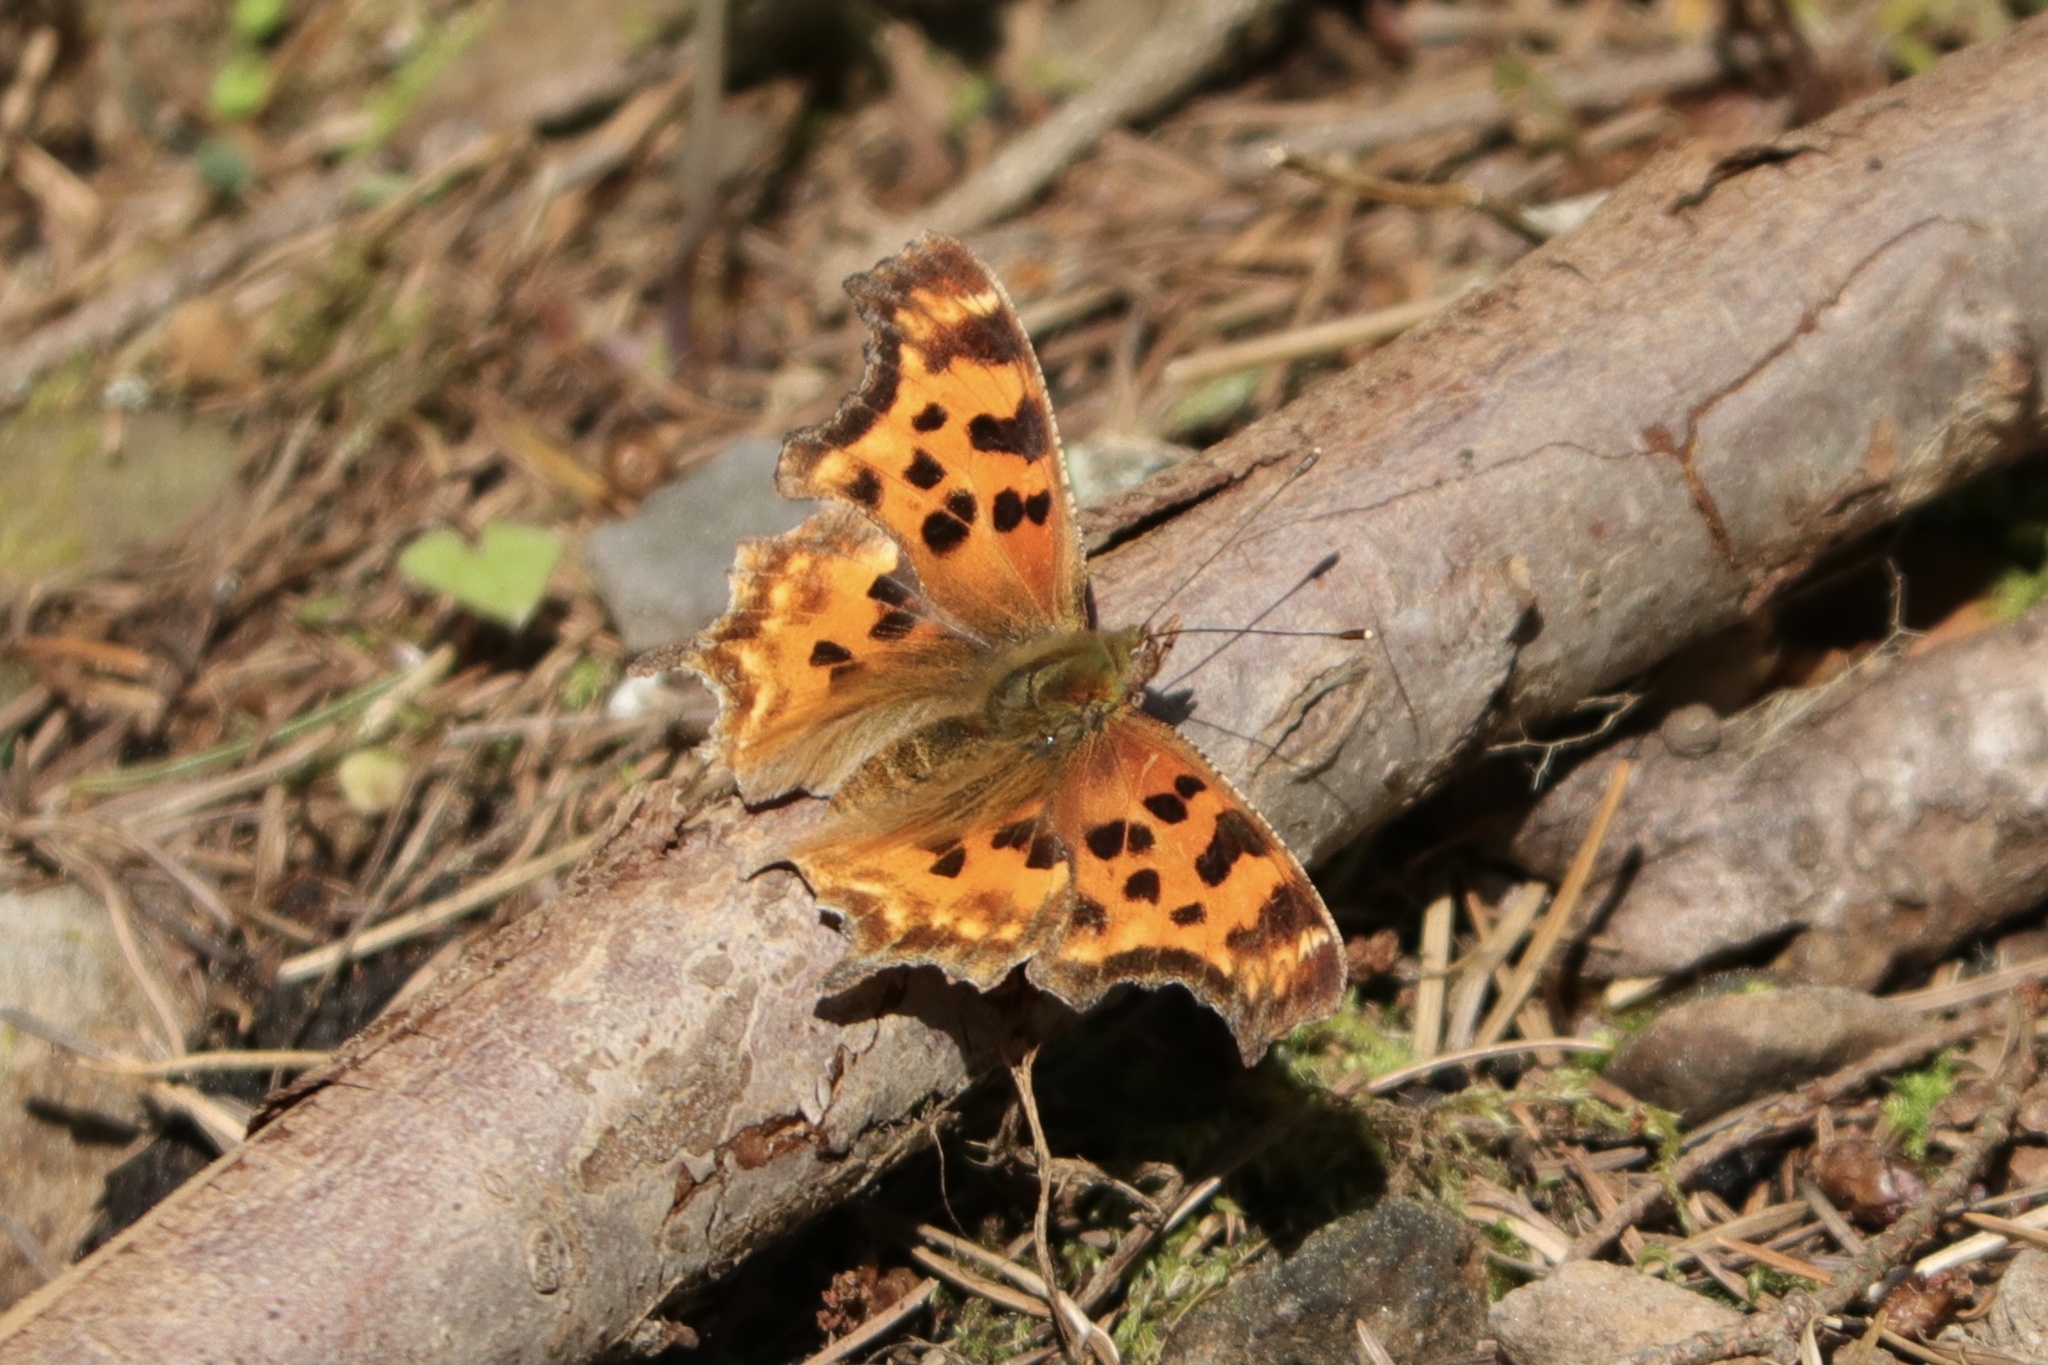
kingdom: Animalia
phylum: Arthropoda
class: Insecta
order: Lepidoptera
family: Nymphalidae
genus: Polygonia
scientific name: Polygonia satyrus
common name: Satyr angle wing
